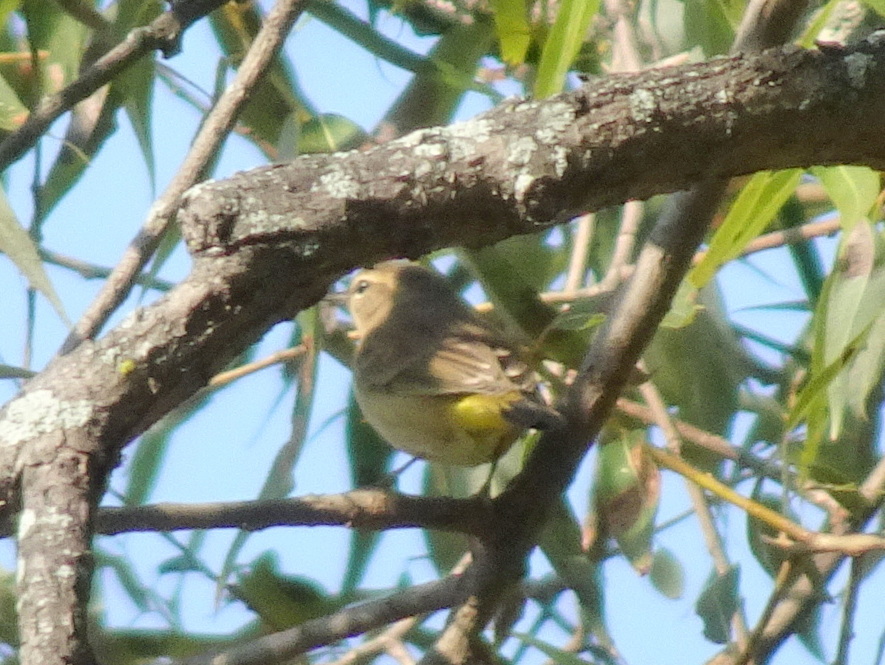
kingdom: Animalia
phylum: Chordata
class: Aves
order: Passeriformes
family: Parulidae
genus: Setophaga
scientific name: Setophaga palmarum
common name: Palm warbler
